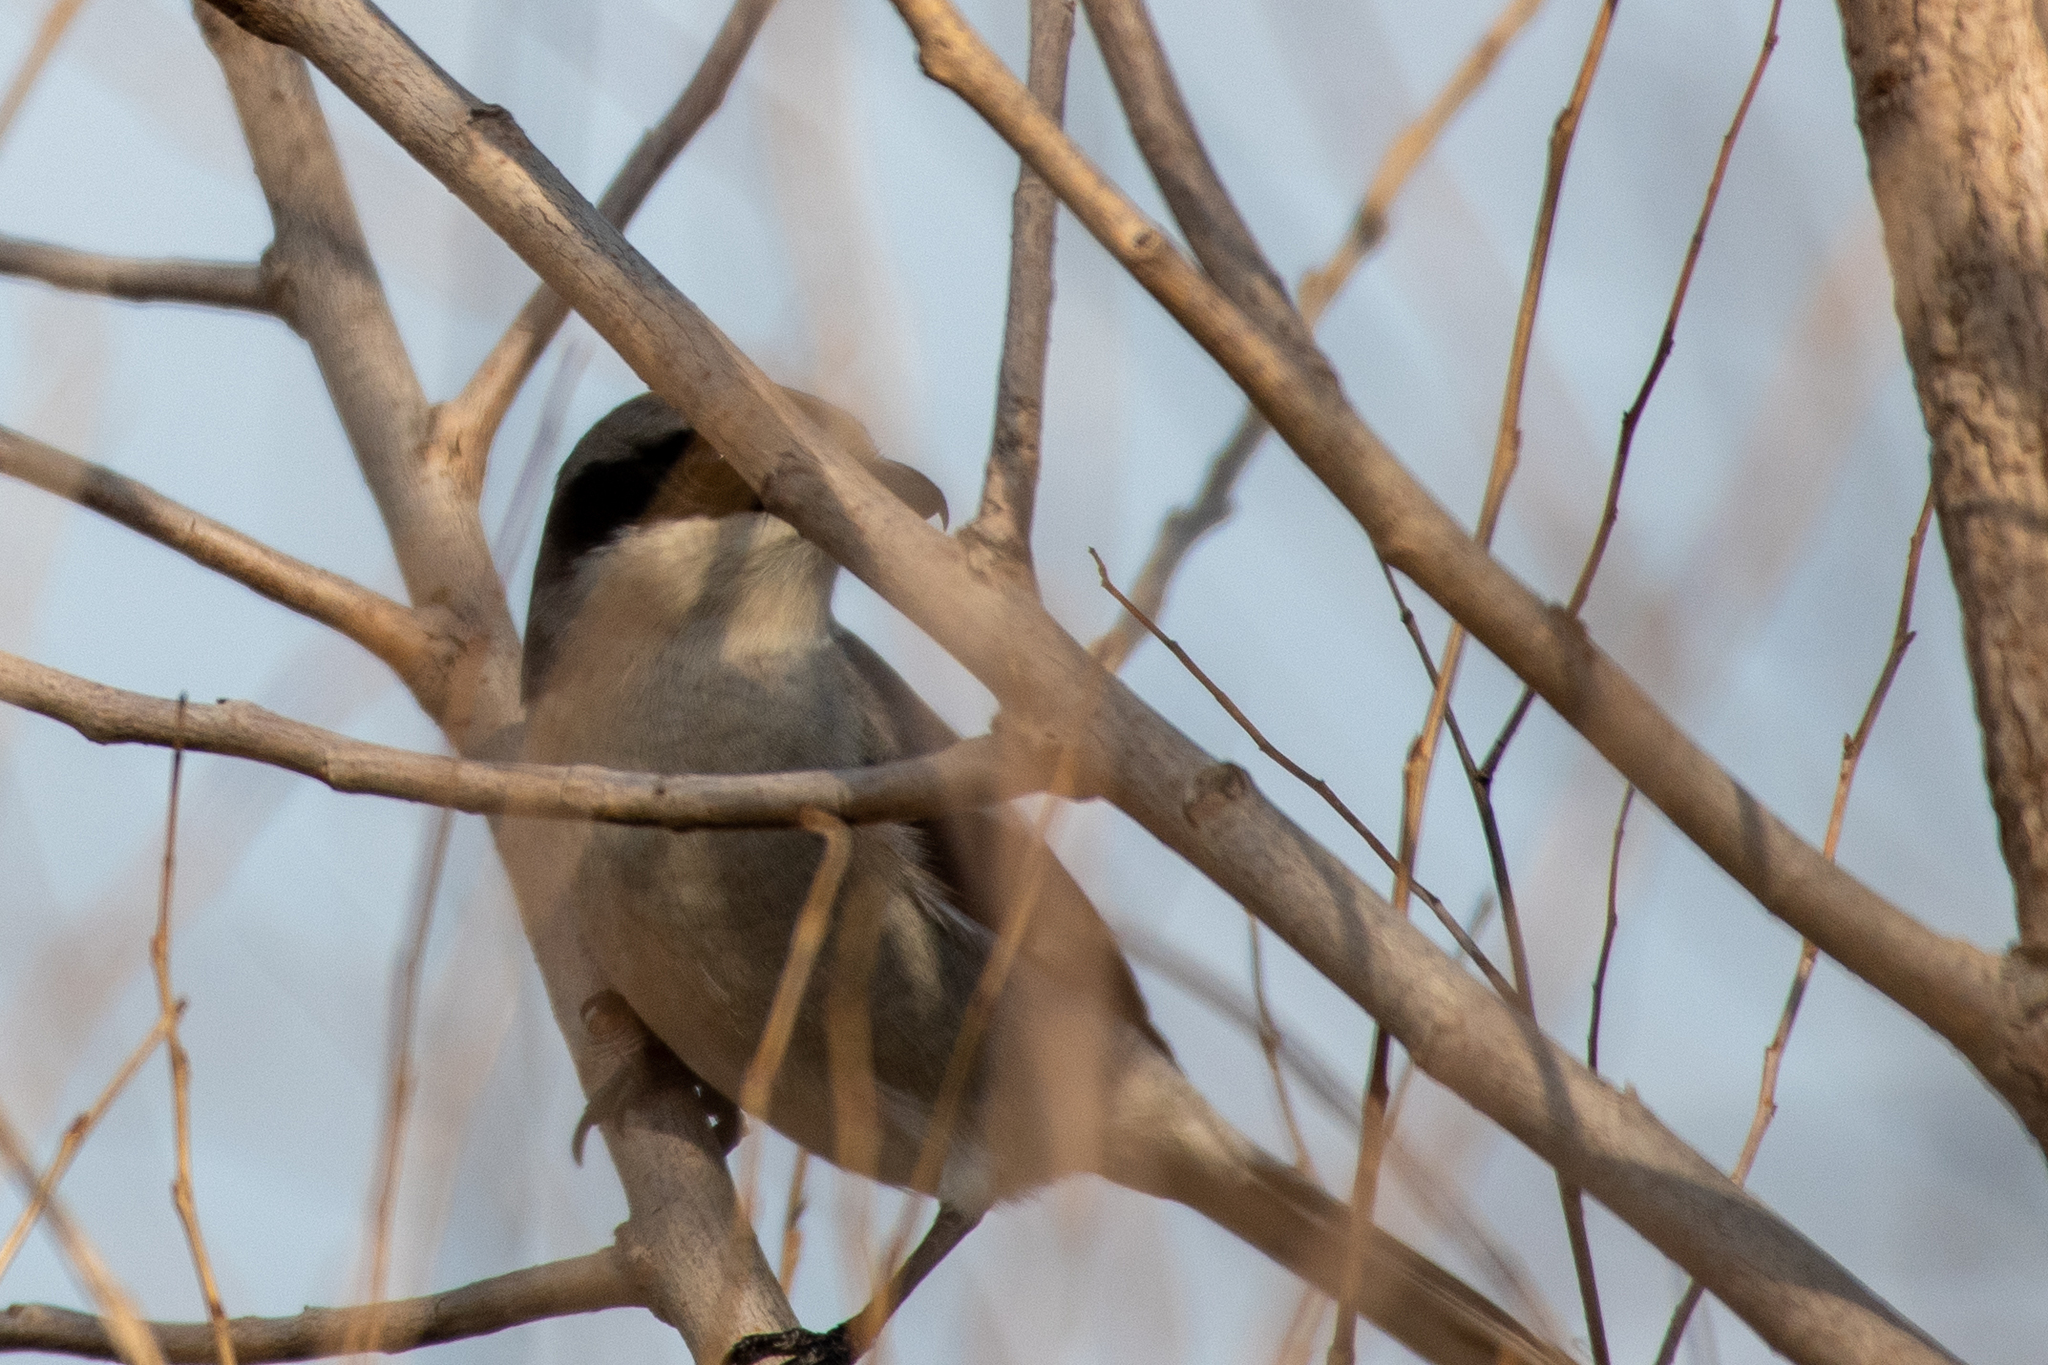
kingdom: Animalia
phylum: Chordata
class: Aves
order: Passeriformes
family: Laniidae
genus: Lanius
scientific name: Lanius ludovicianus
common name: Loggerhead shrike
